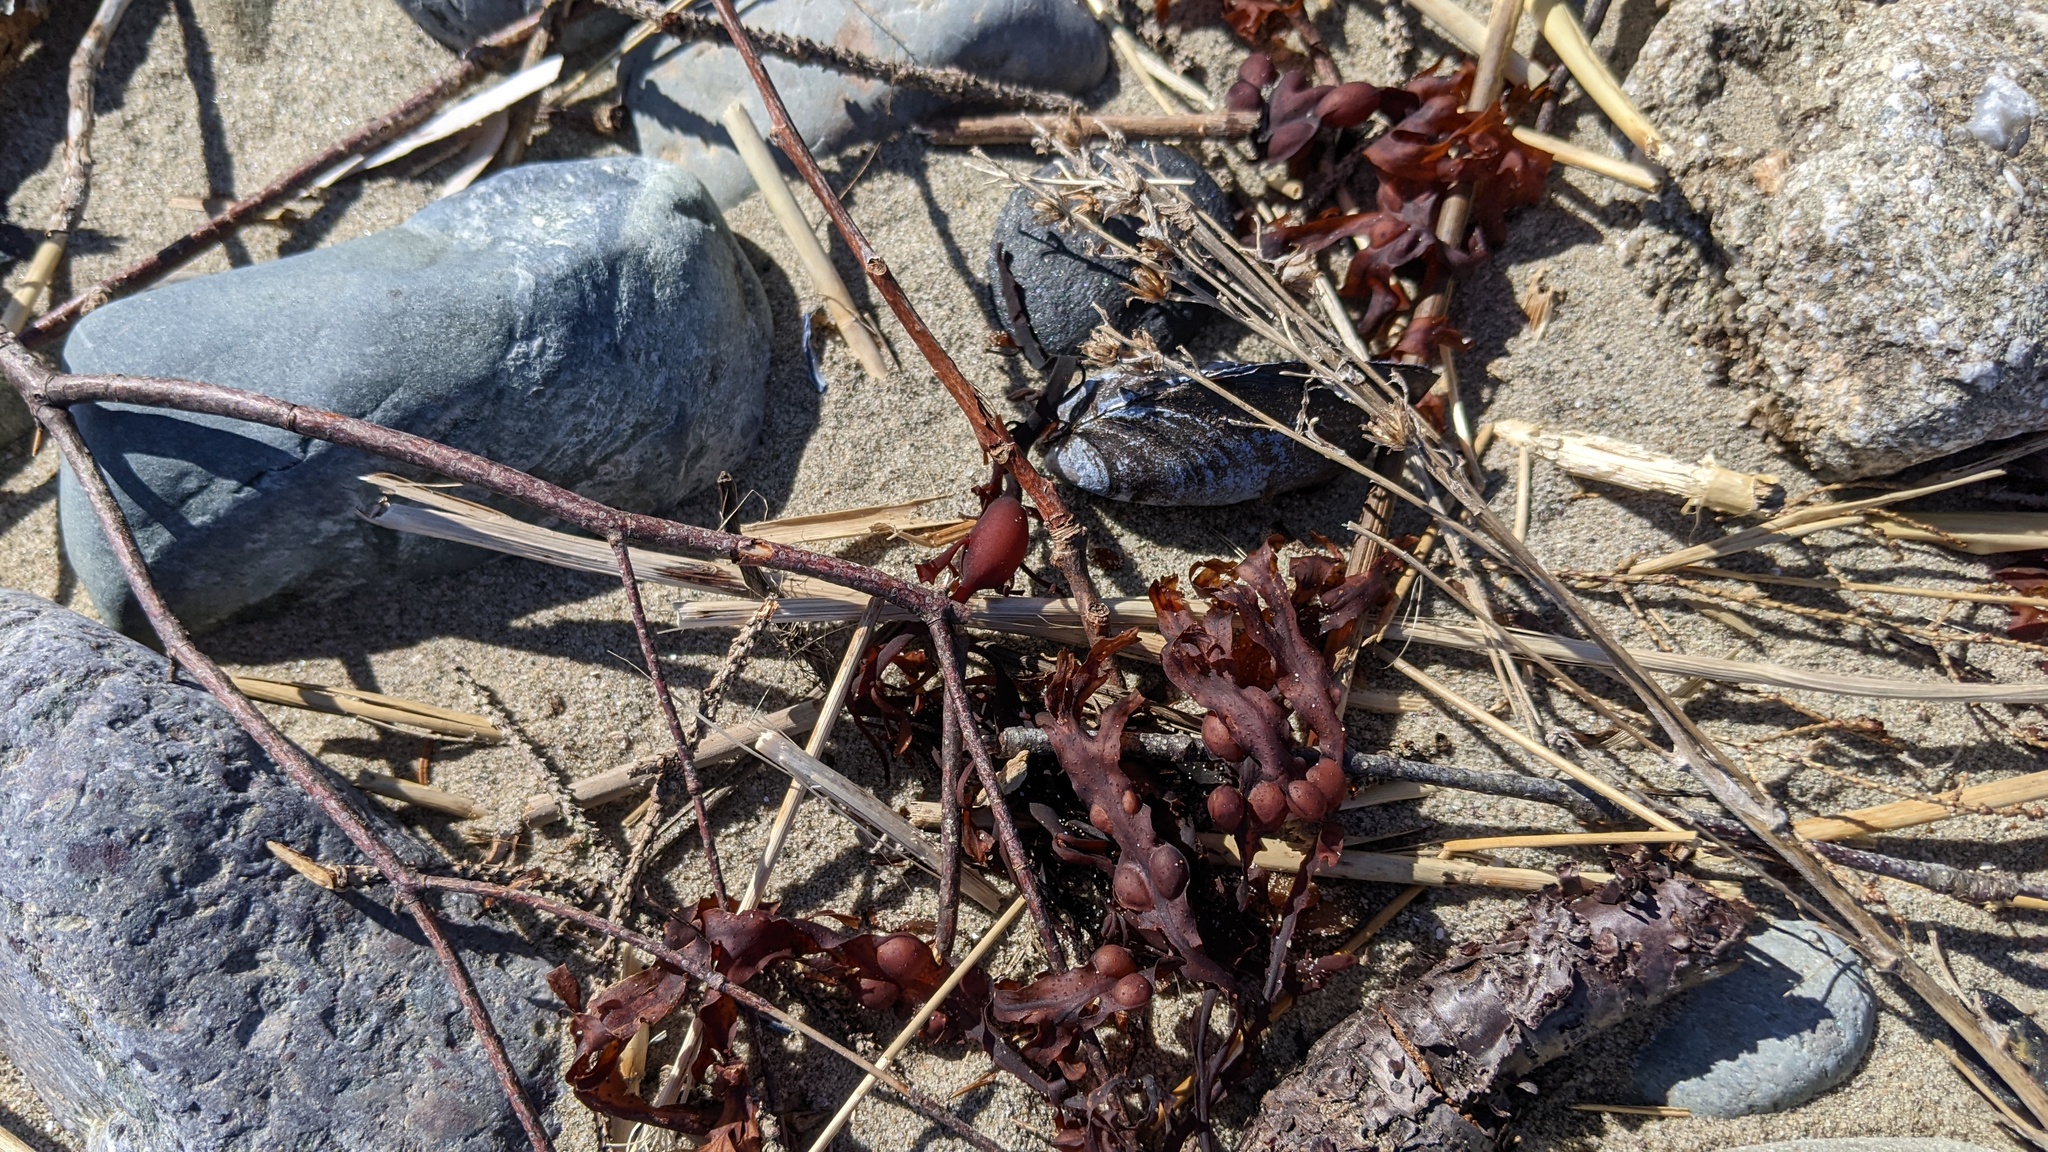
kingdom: Chromista
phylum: Ochrophyta
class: Phaeophyceae
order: Fucales
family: Fucaceae
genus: Fucus
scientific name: Fucus vesiculosus
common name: Bladder wrack
